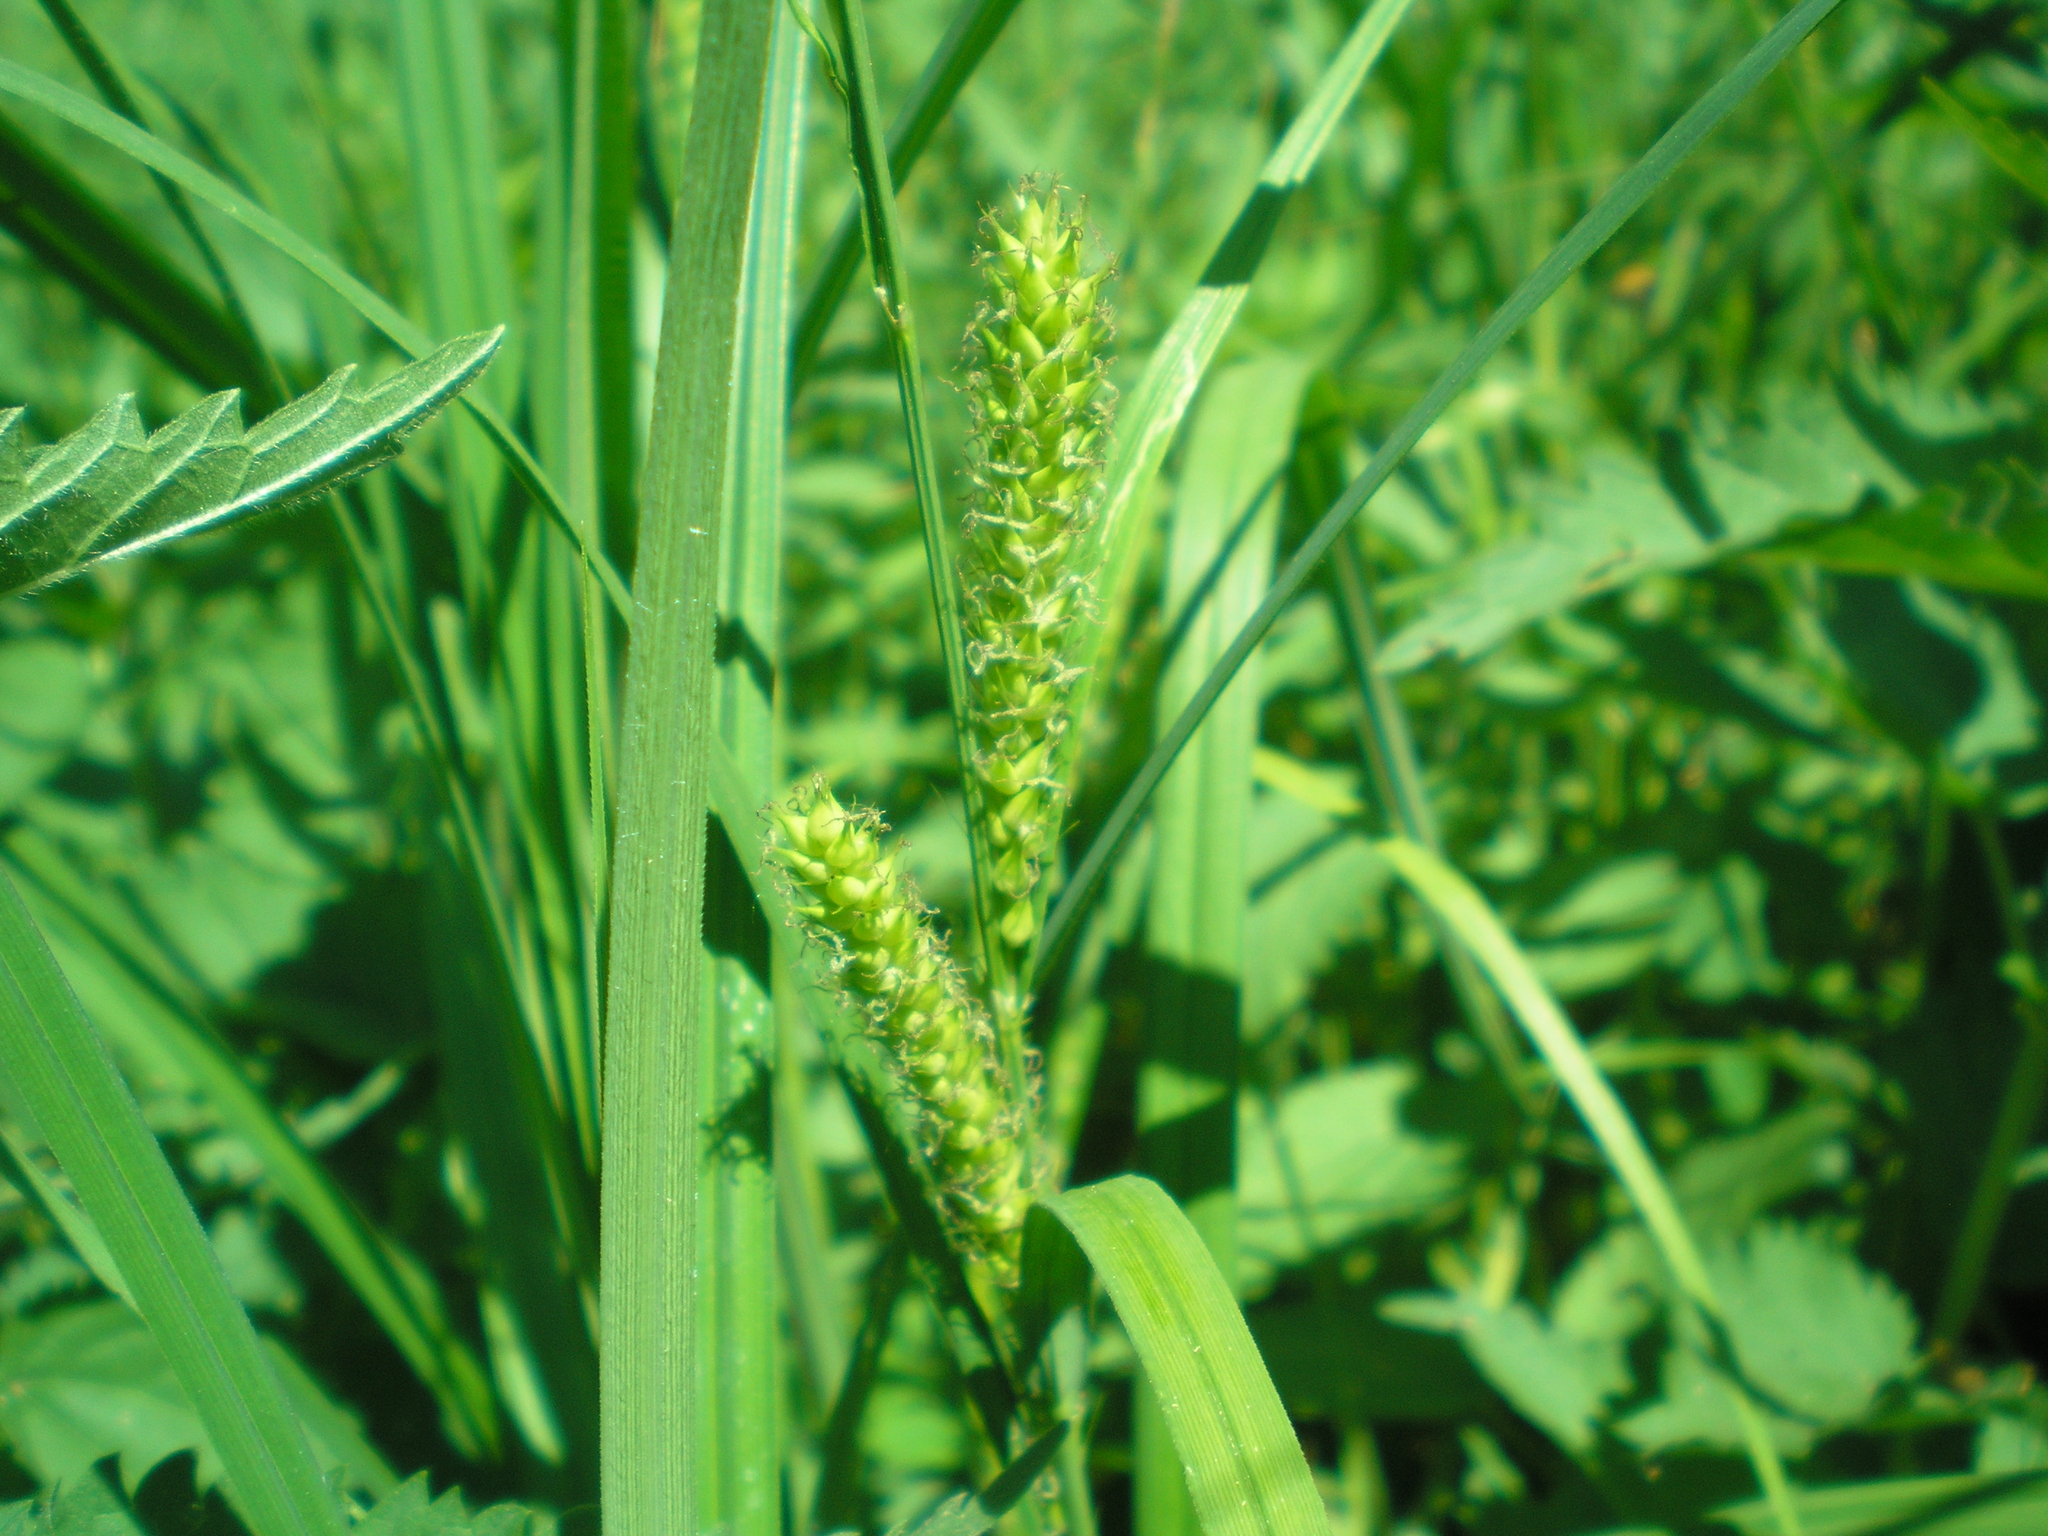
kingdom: Plantae
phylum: Tracheophyta
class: Liliopsida
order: Poales
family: Cyperaceae
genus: Carex
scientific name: Carex atherodes
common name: Wheat sedge
